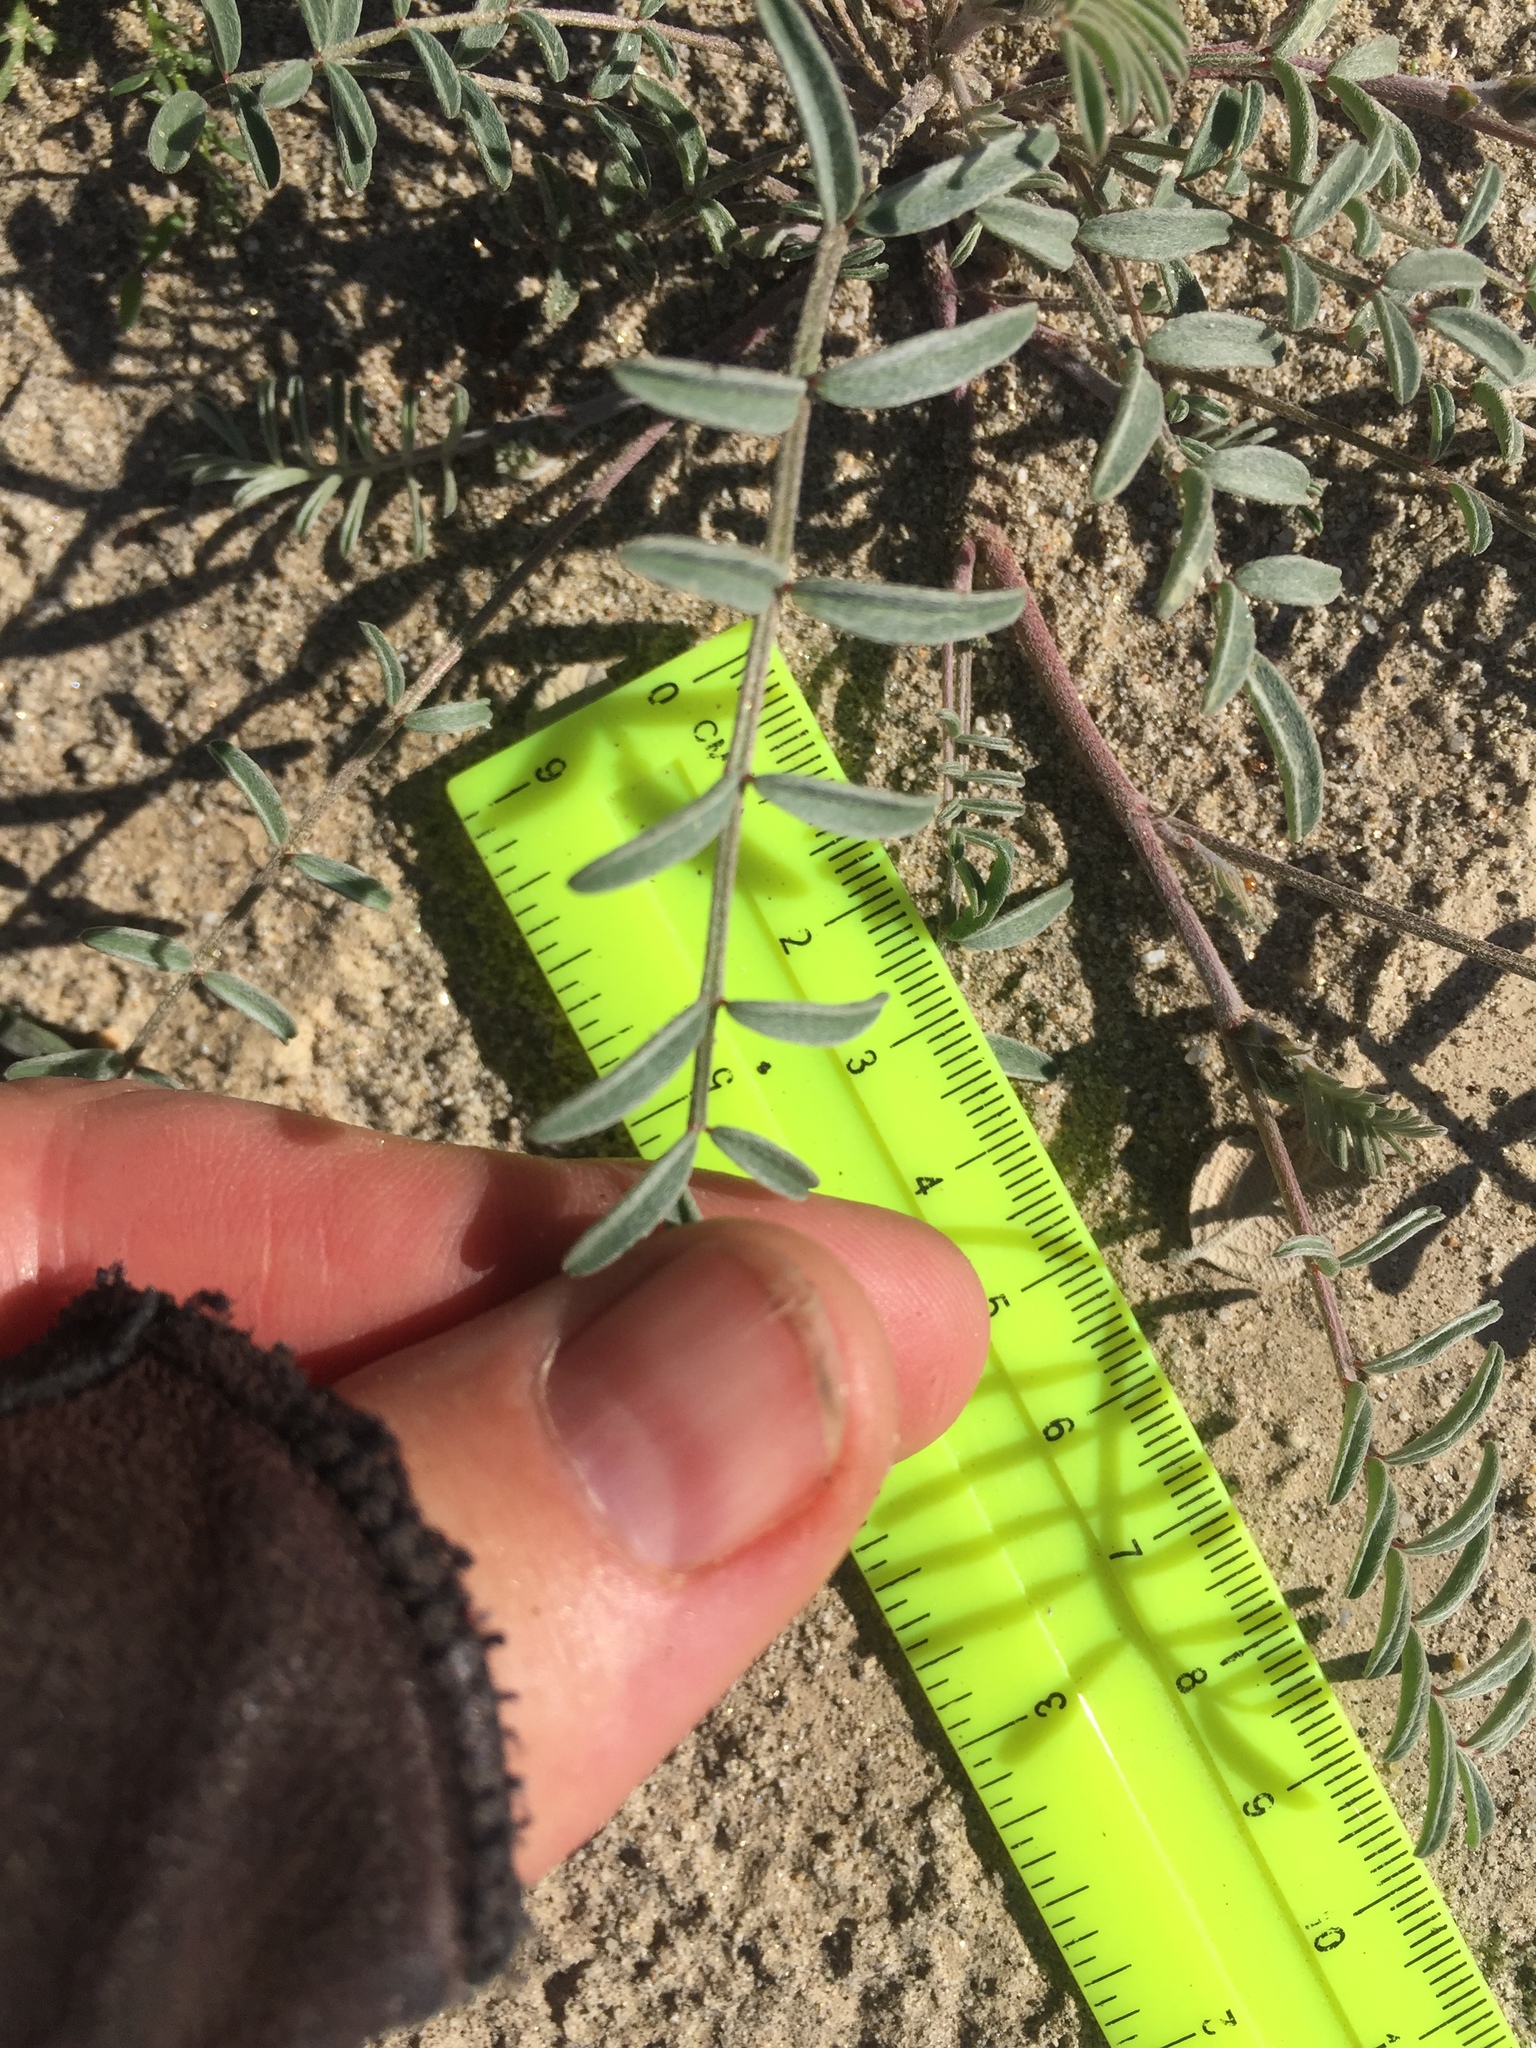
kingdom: Plantae
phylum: Tracheophyta
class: Magnoliopsida
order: Fabales
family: Fabaceae
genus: Astragalus
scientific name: Astragalus aridus
